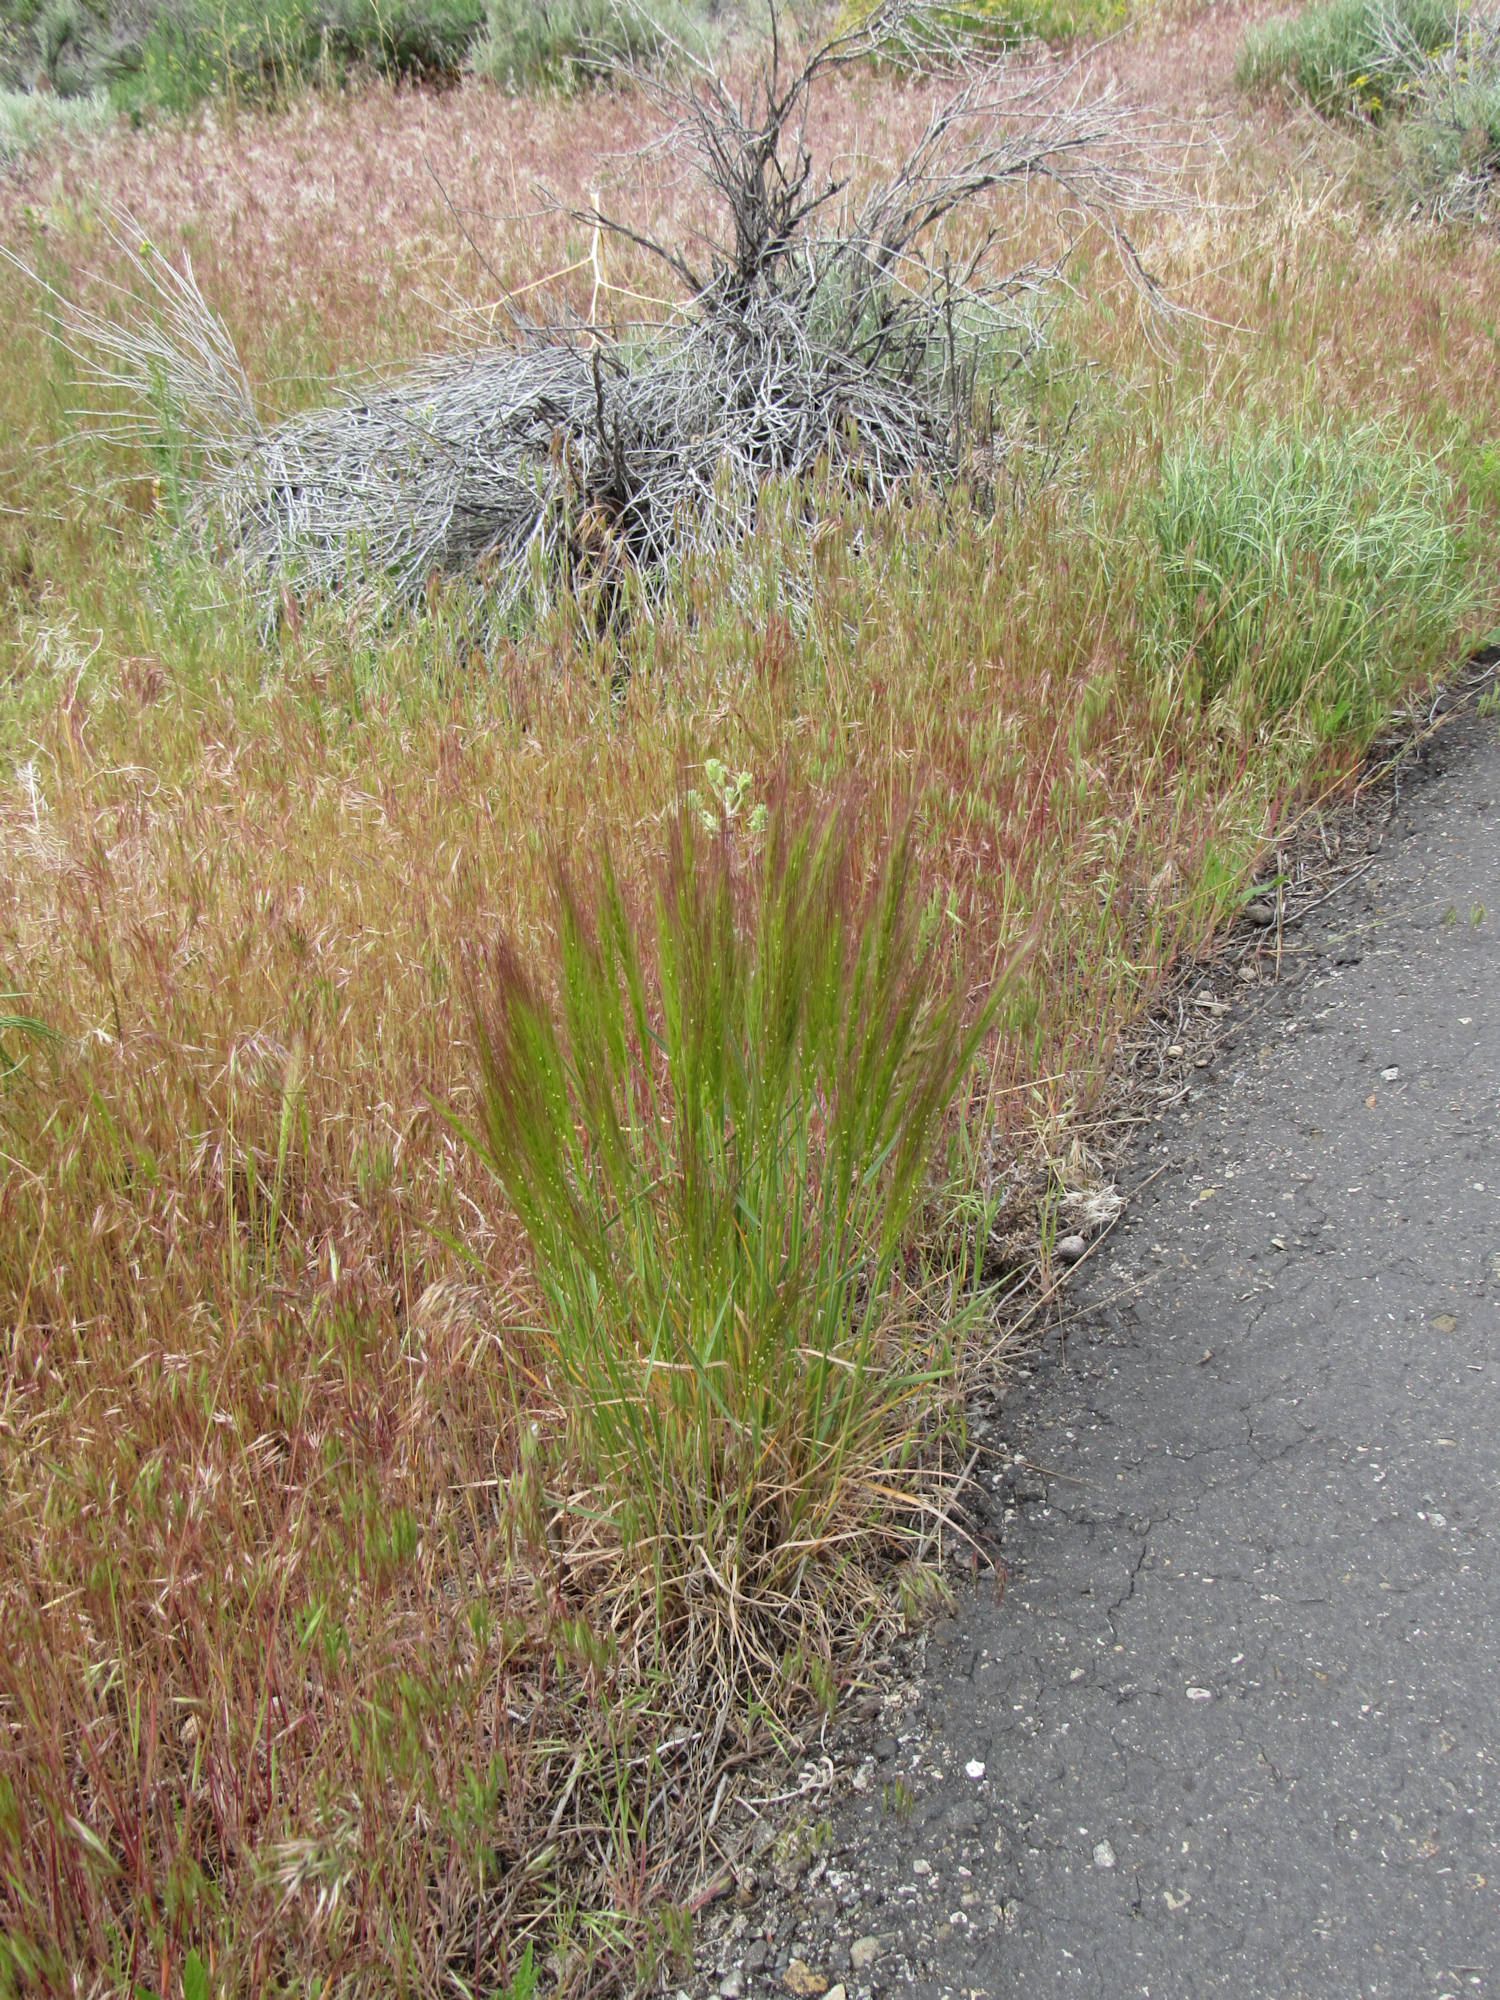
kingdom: Plantae
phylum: Tracheophyta
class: Liliopsida
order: Poales
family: Poaceae
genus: Elymus
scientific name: Elymus elymoides
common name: Bottlebrush squirreltail
